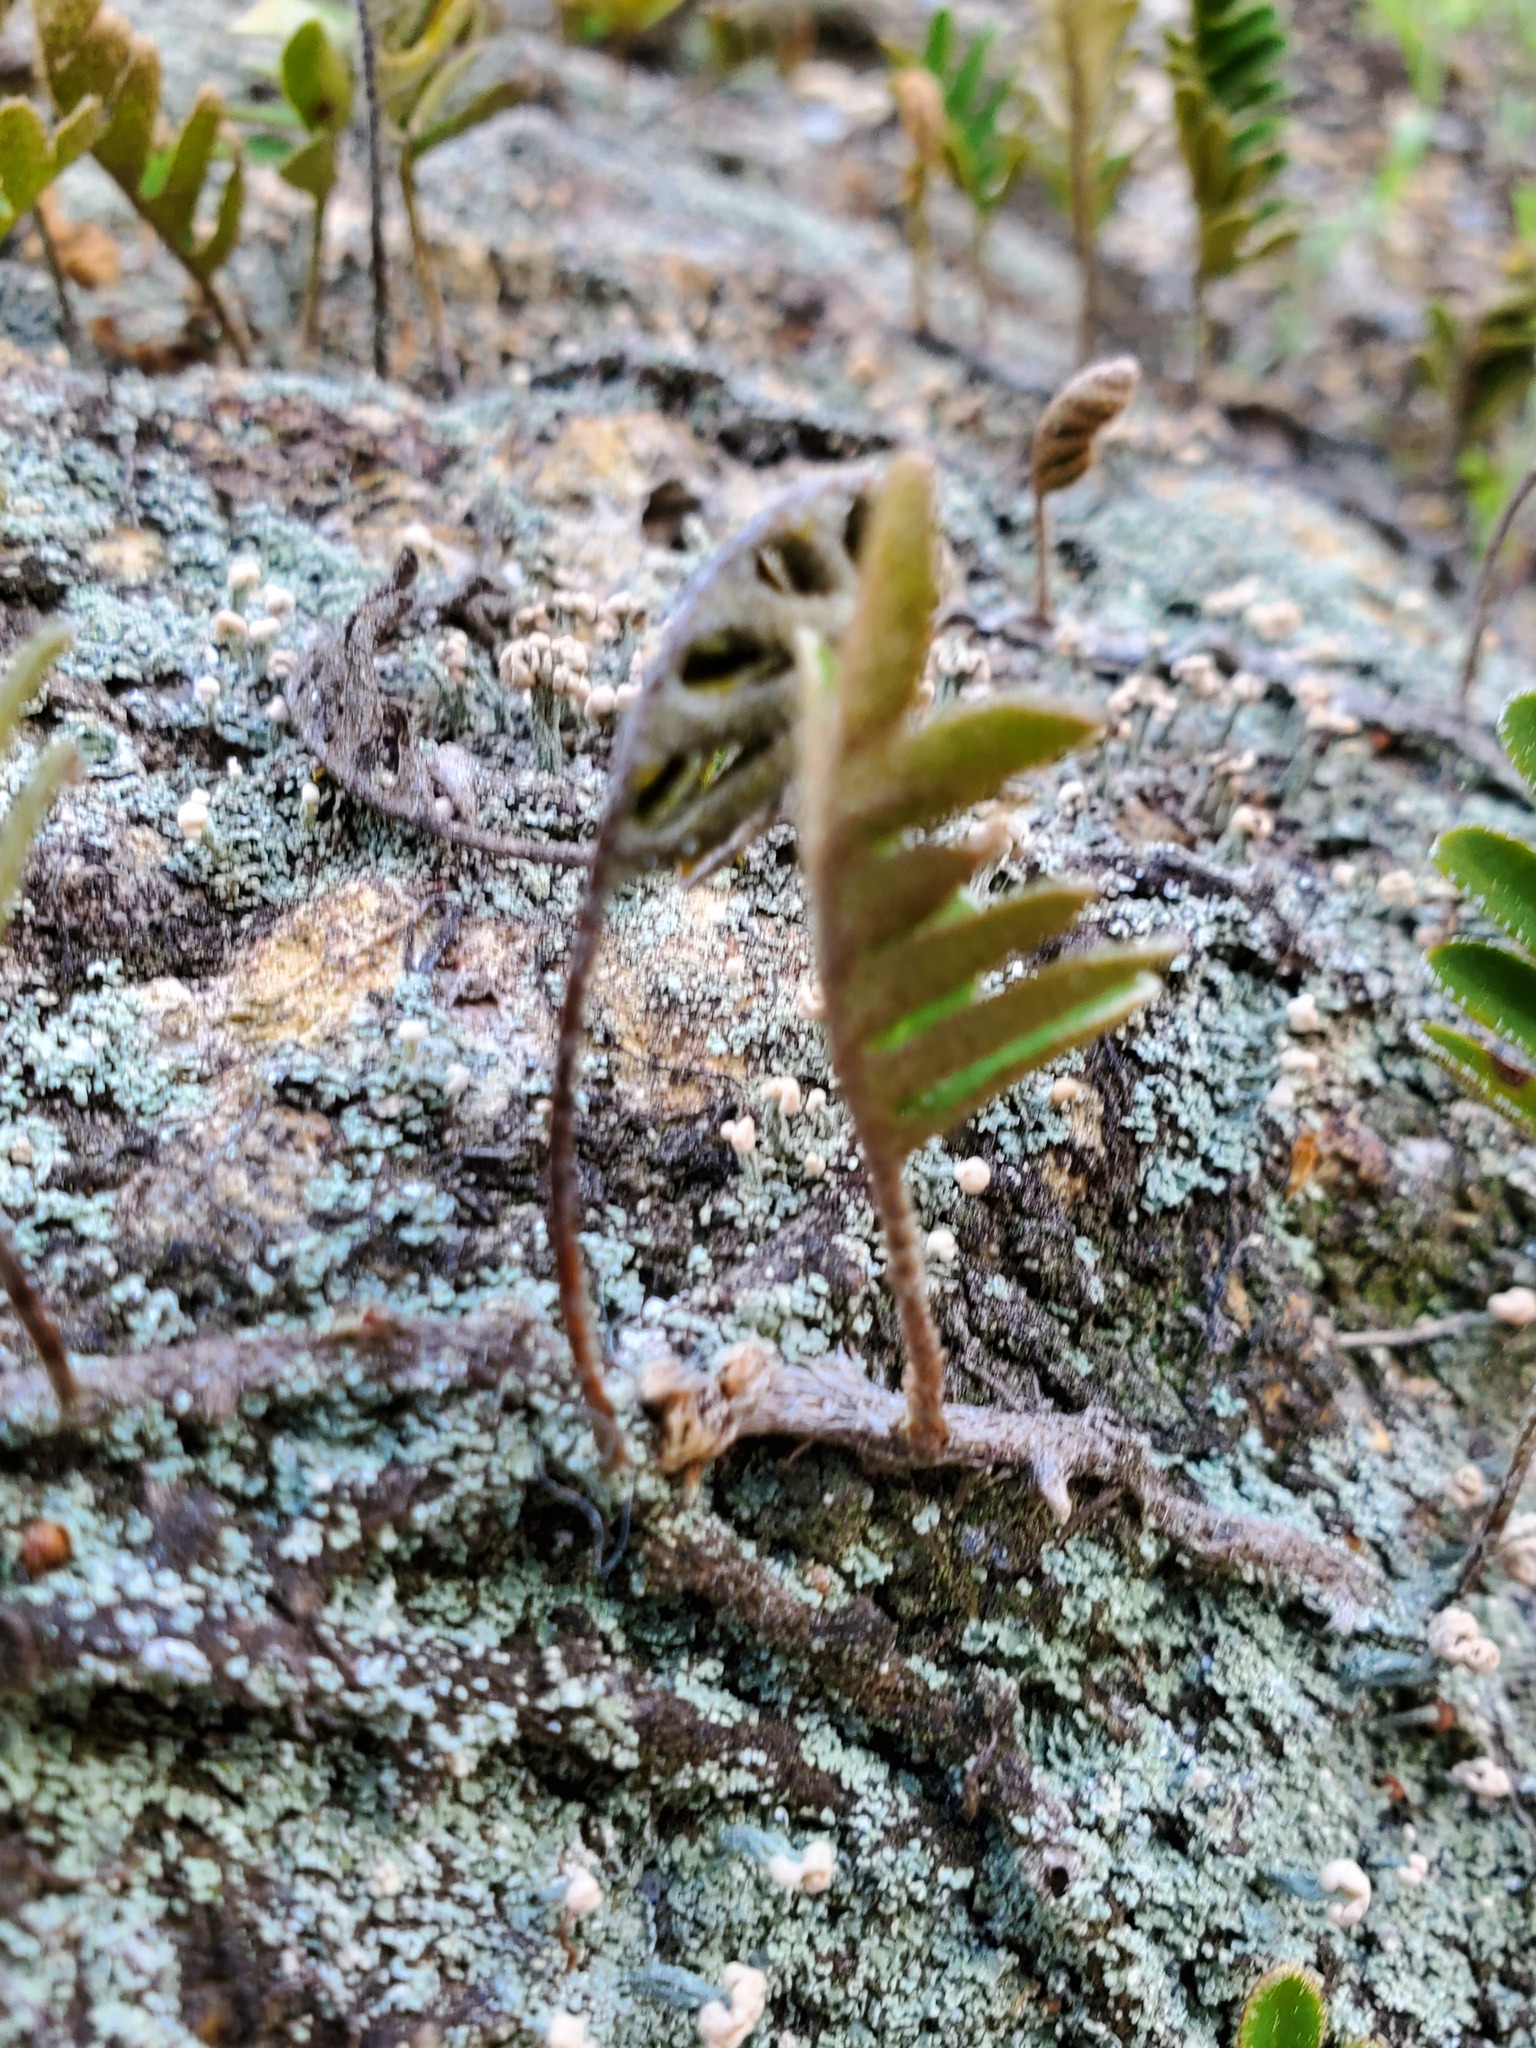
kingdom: Plantae
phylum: Tracheophyta
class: Polypodiopsida
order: Polypodiales
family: Polypodiaceae
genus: Pleopeltis
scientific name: Pleopeltis michauxiana
